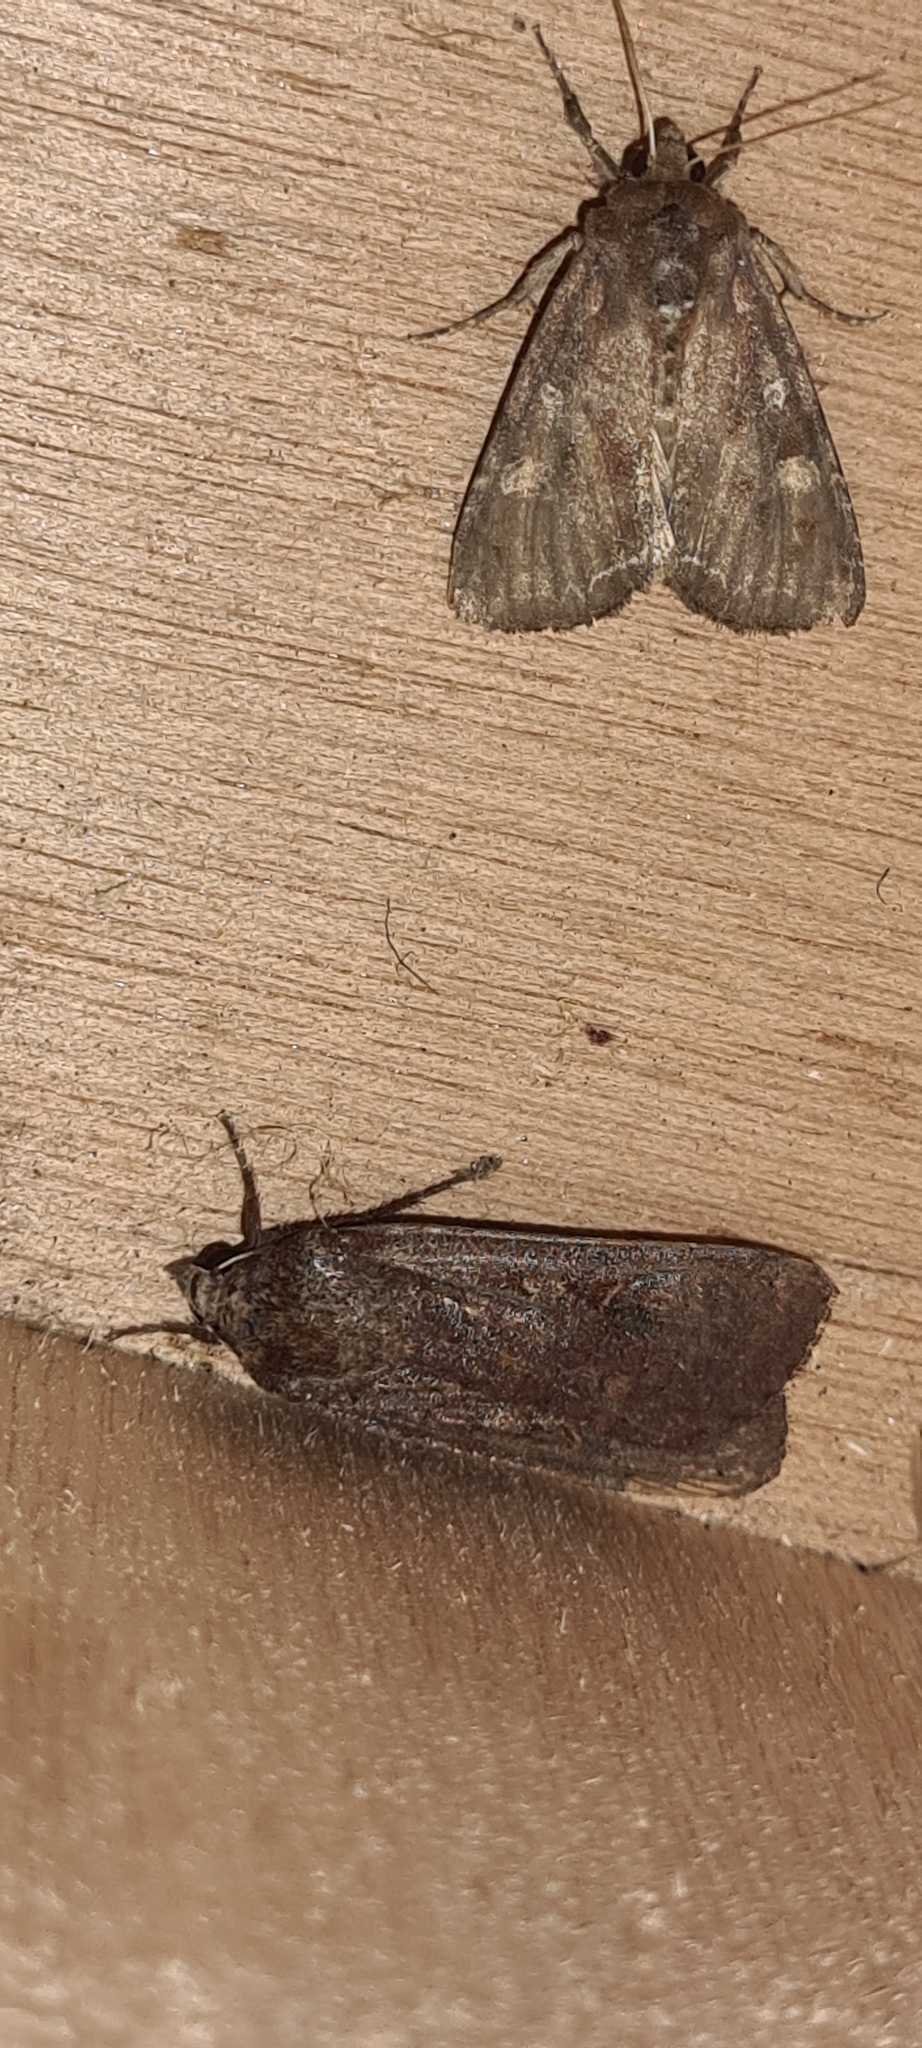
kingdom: Animalia
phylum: Arthropoda
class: Insecta
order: Lepidoptera
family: Noctuidae
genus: Noctua
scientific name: Noctua pronuba
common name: Large yellow underwing
